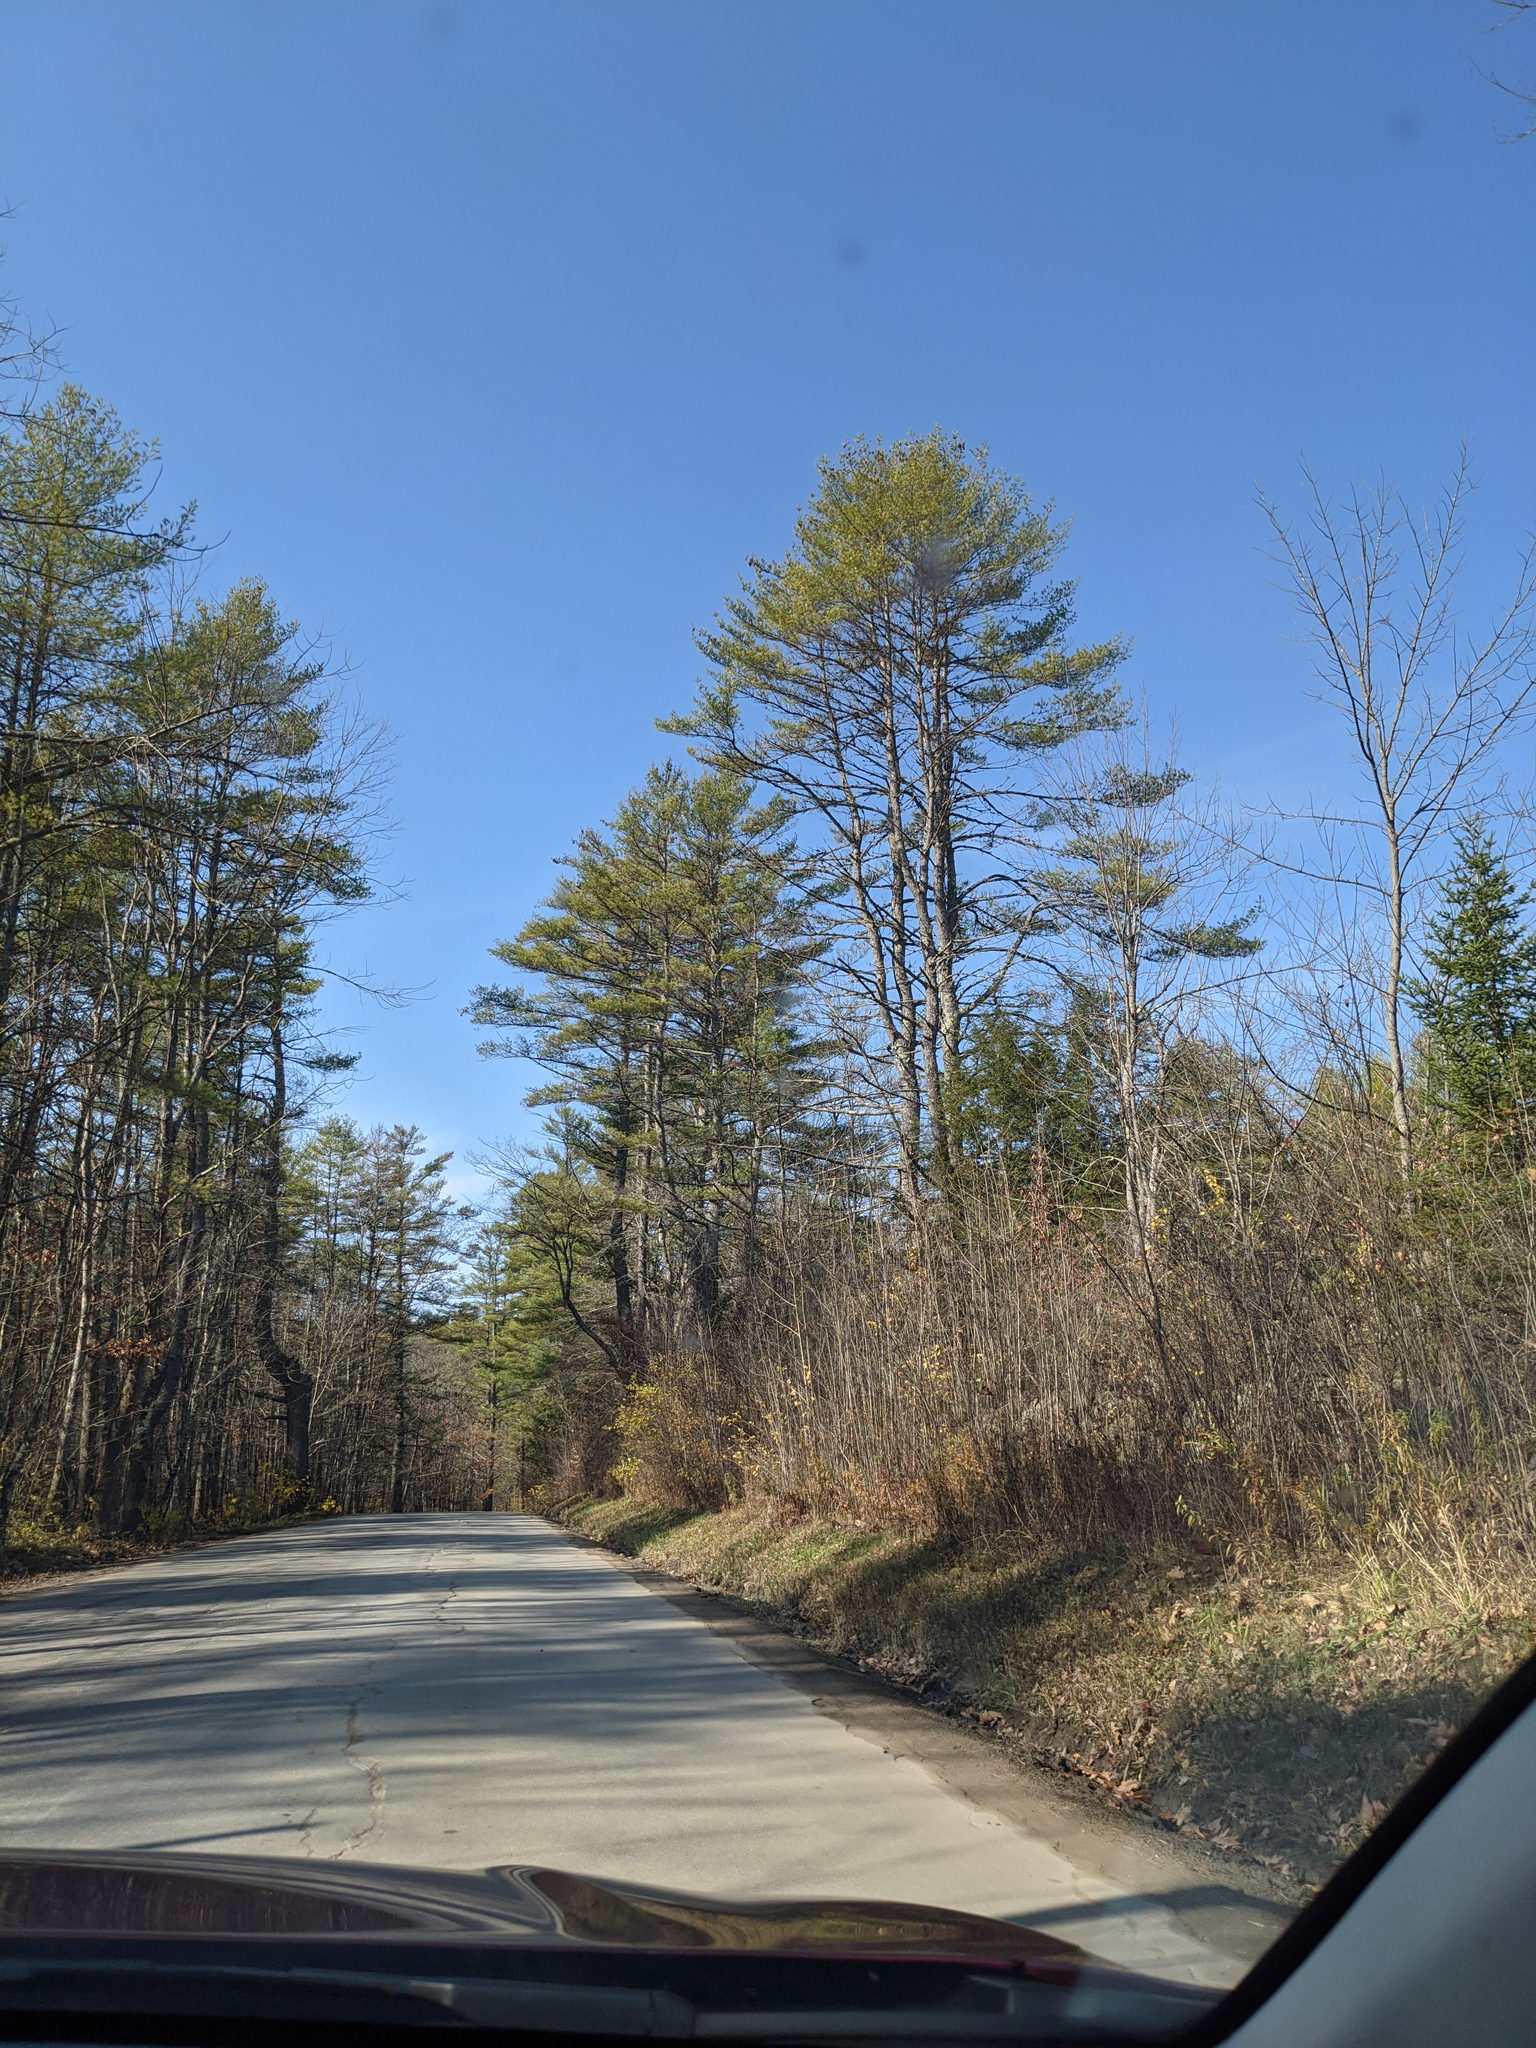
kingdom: Plantae
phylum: Tracheophyta
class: Pinopsida
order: Pinales
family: Pinaceae
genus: Pinus
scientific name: Pinus strobus
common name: Weymouth pine
